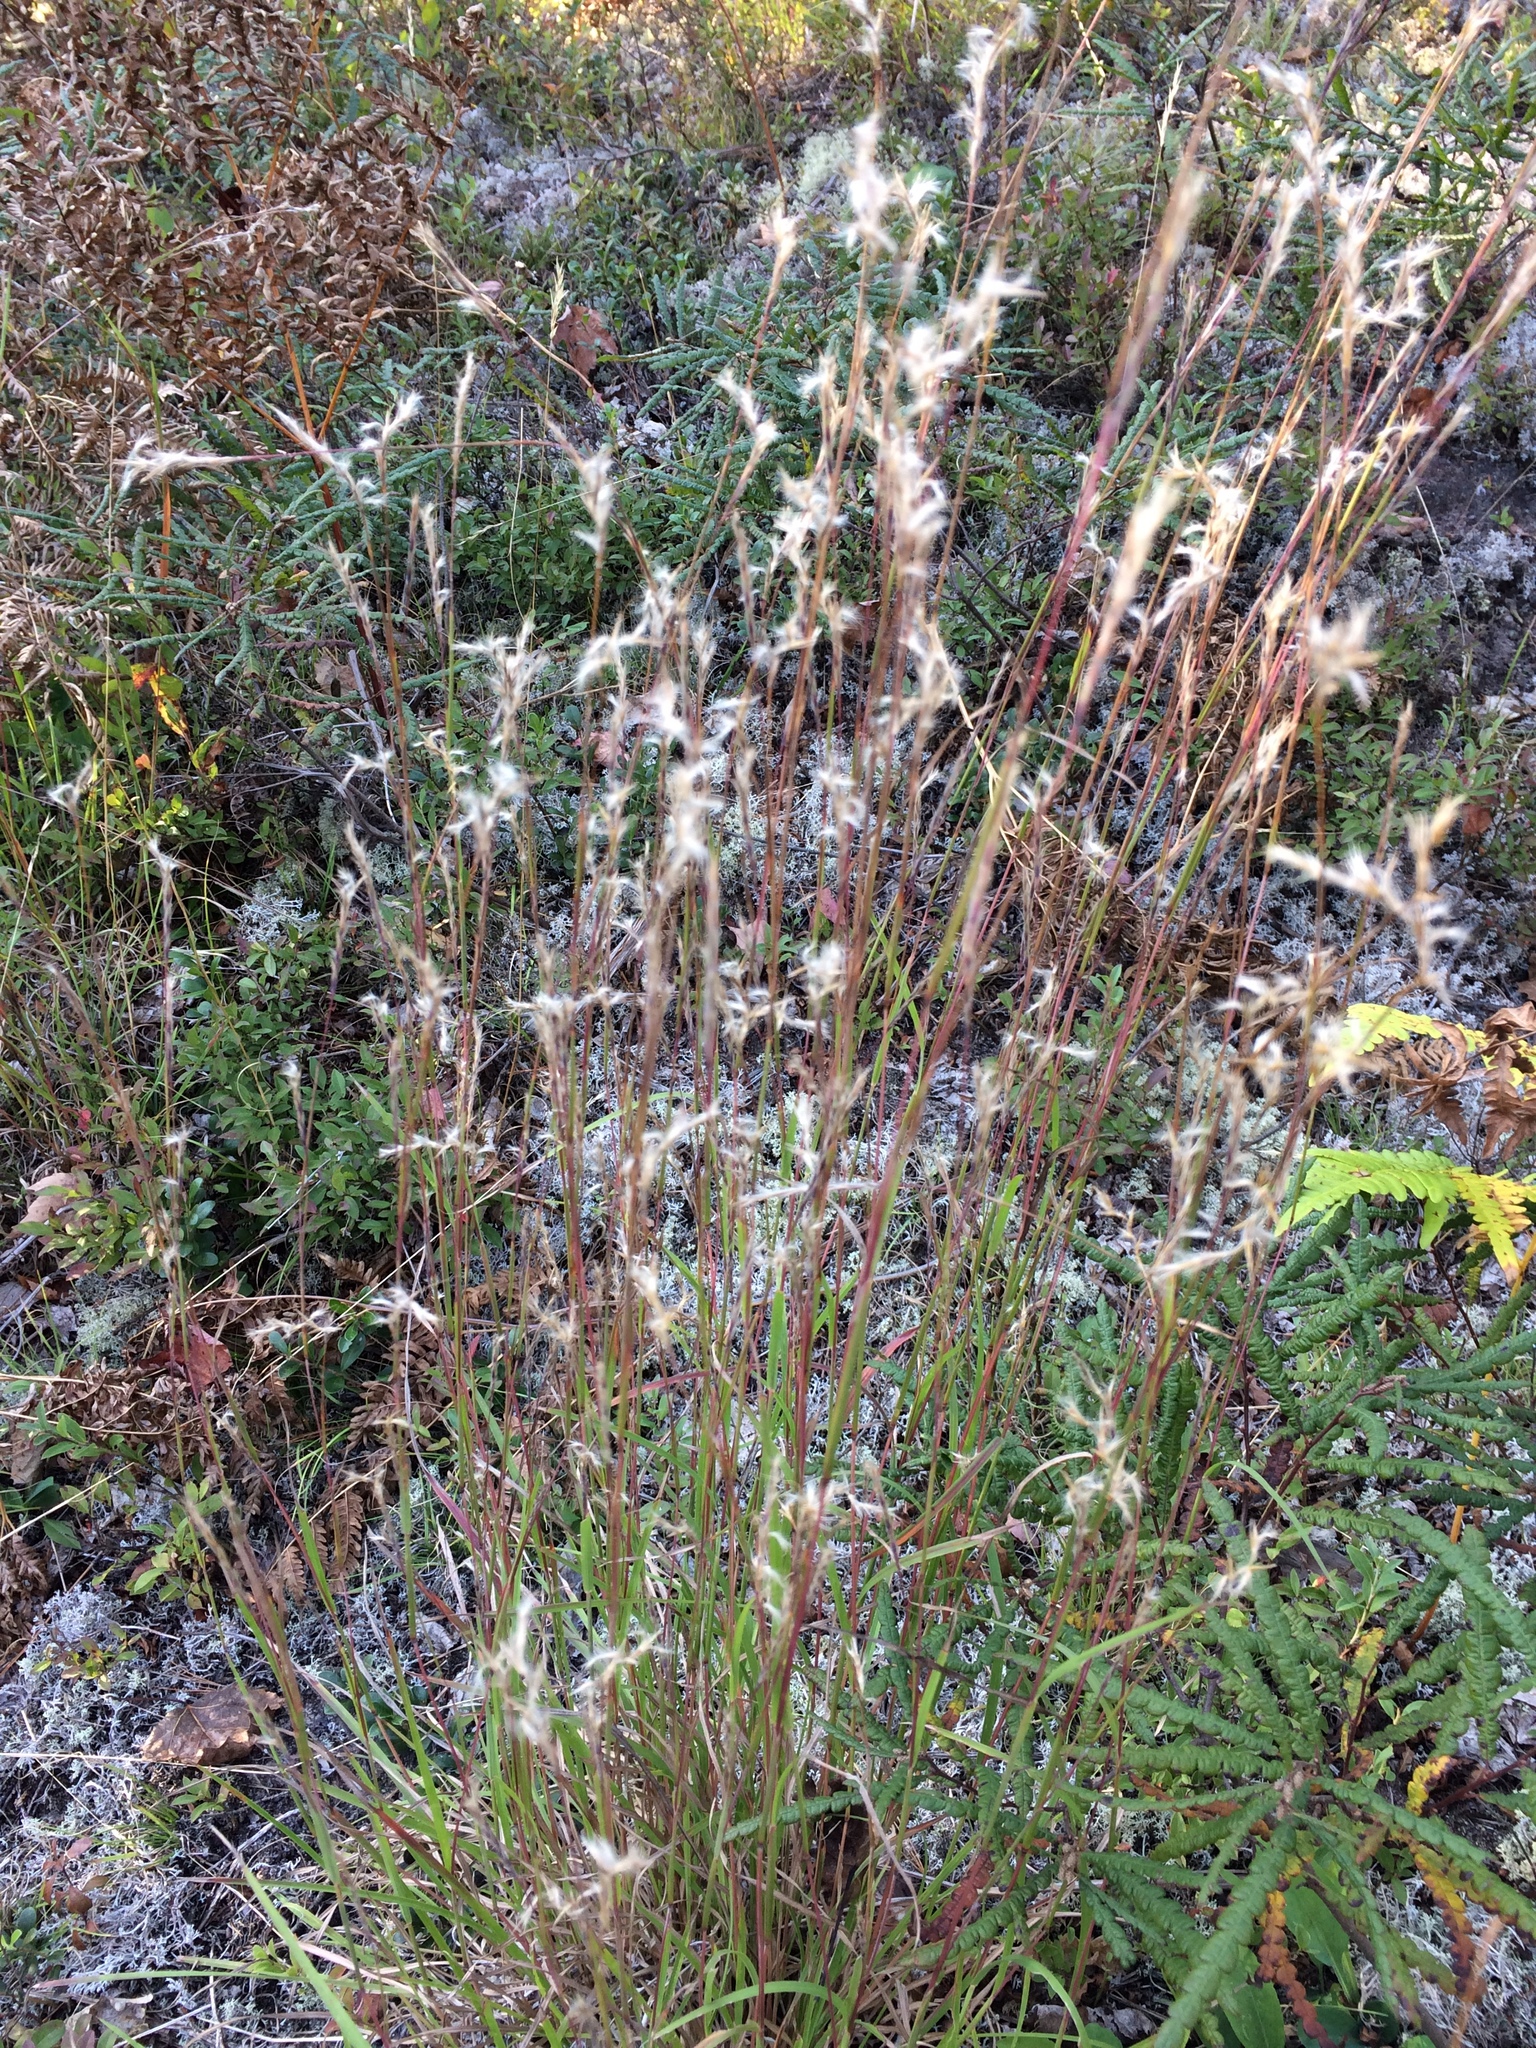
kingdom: Plantae
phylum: Tracheophyta
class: Liliopsida
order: Poales
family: Poaceae
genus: Schizachyrium
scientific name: Schizachyrium scoparium
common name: Little bluestem
